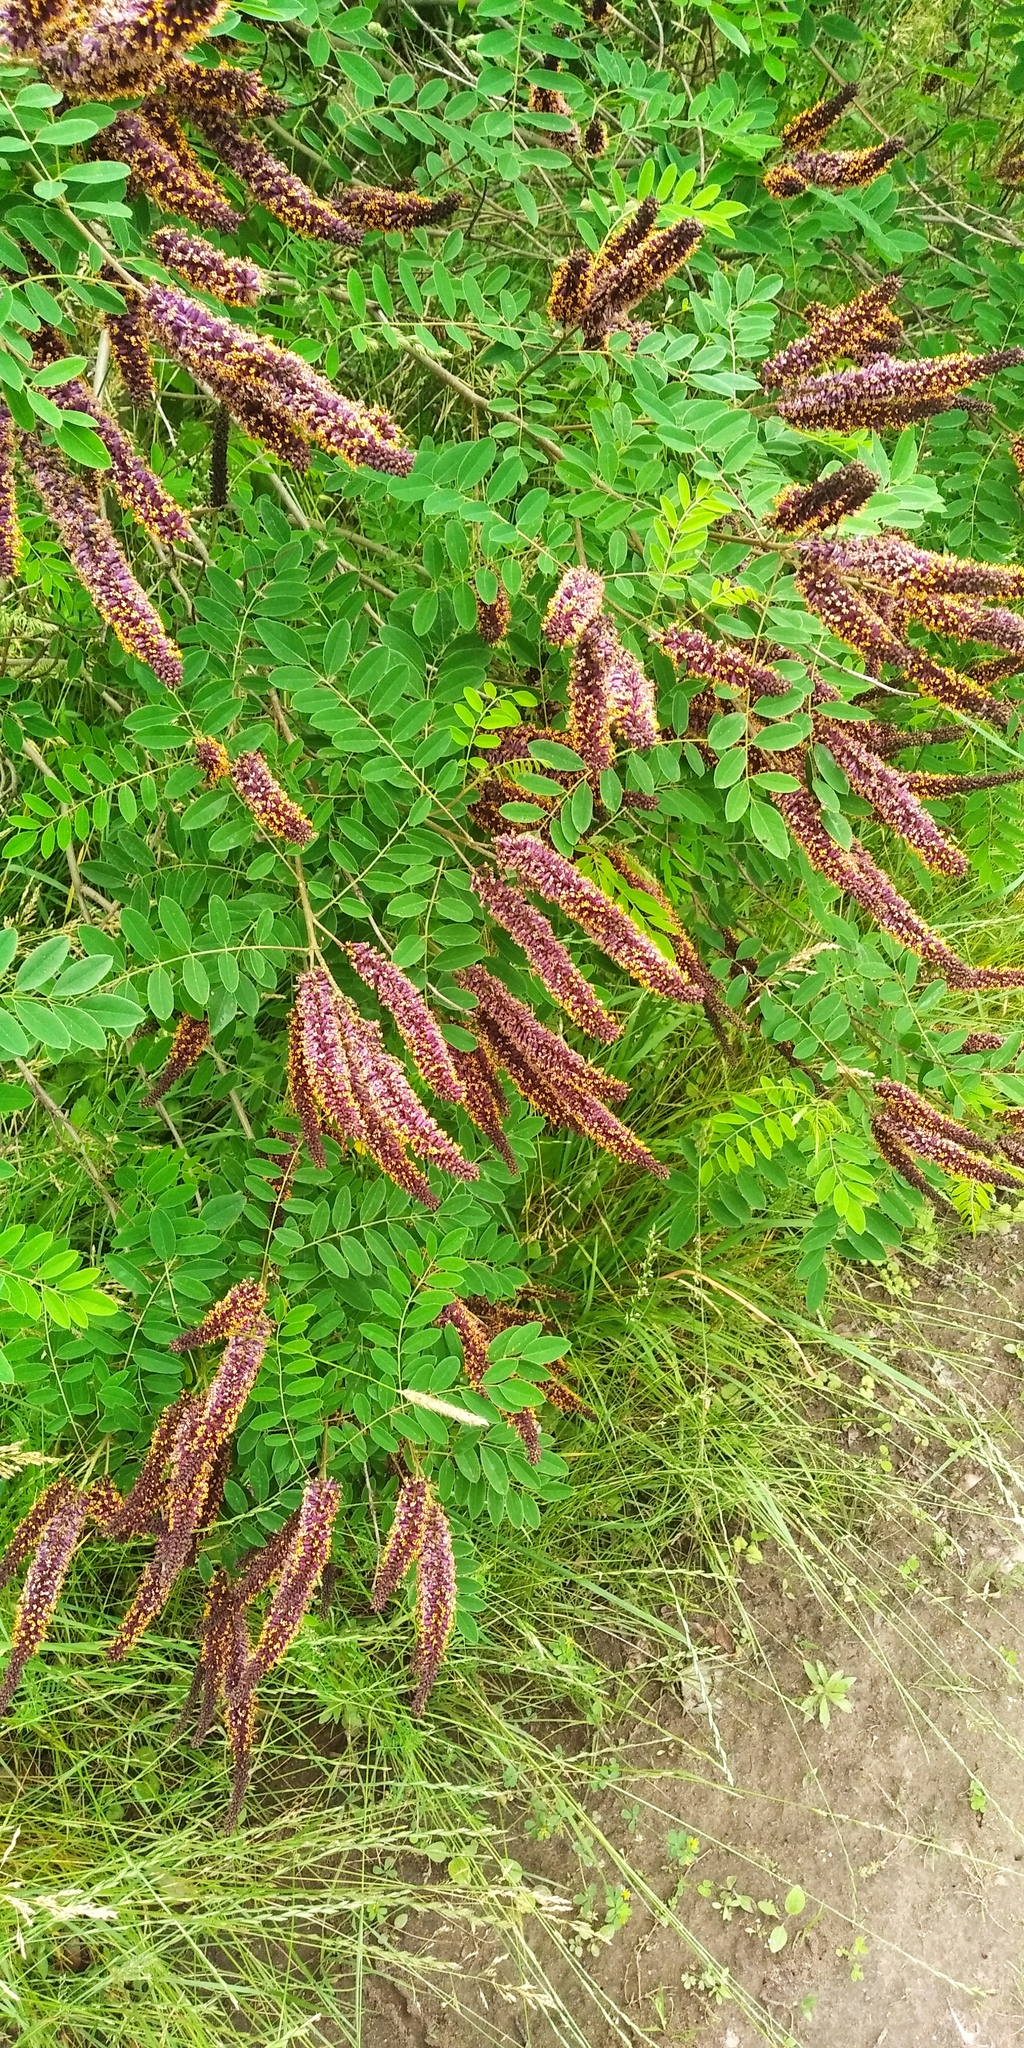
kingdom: Plantae
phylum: Tracheophyta
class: Magnoliopsida
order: Fabales
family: Fabaceae
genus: Amorpha
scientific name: Amorpha fruticosa
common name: False indigo
